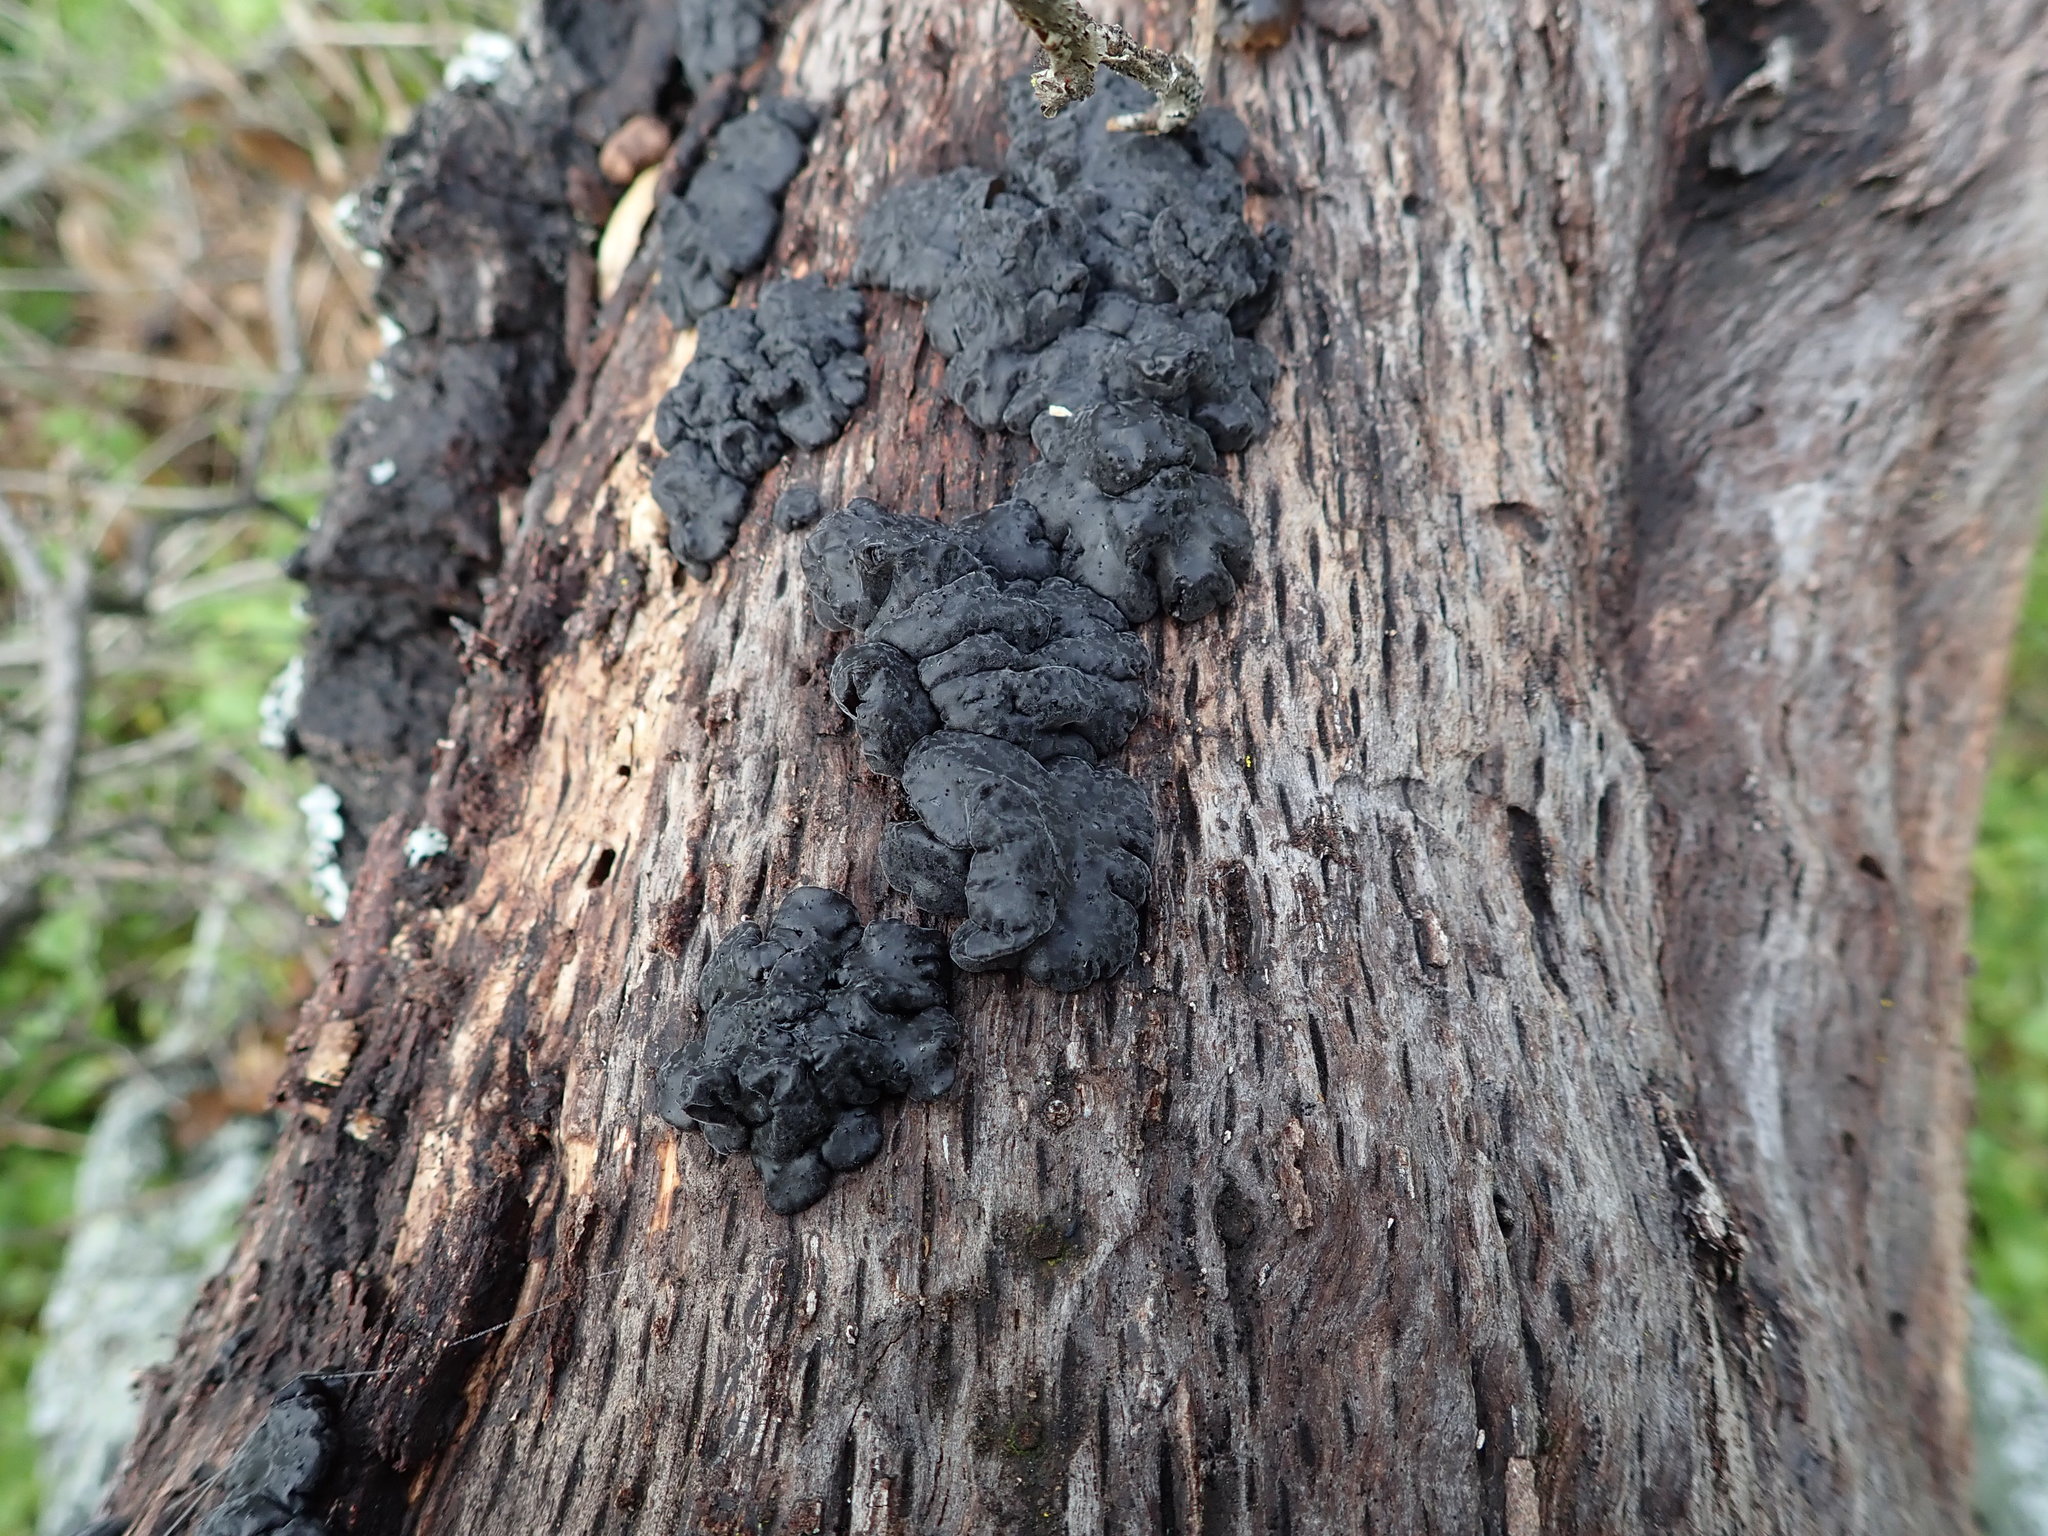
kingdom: Fungi
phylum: Basidiomycota
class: Agaricomycetes
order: Auriculariales
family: Auriculariaceae
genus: Exidia
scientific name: Exidia glandulosa
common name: Witches' butter
